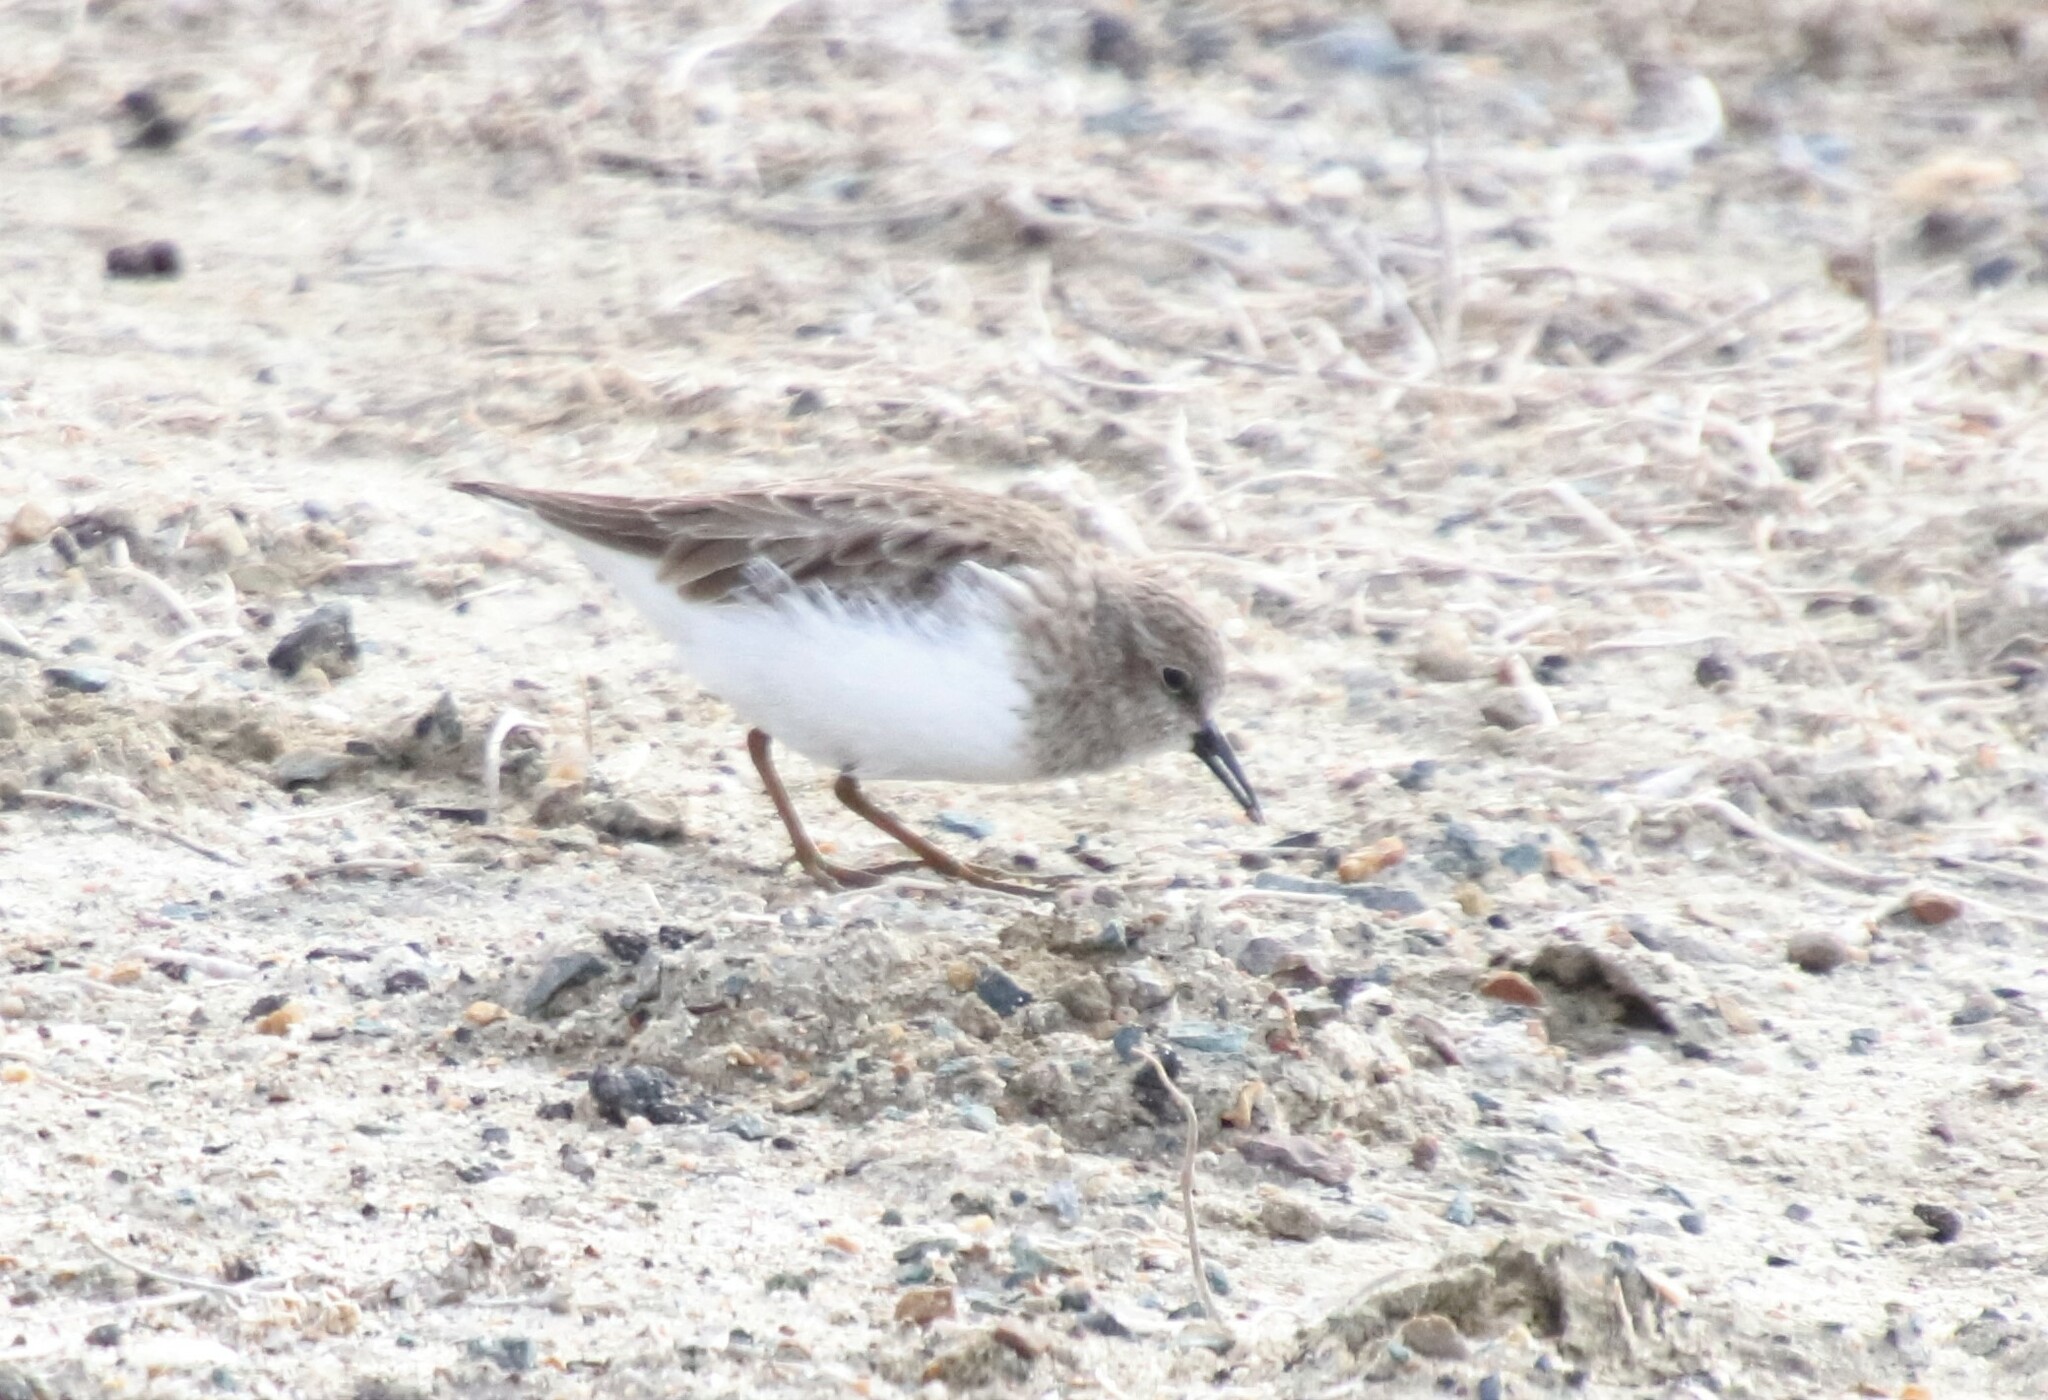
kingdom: Animalia
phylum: Chordata
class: Aves
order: Charadriiformes
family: Scolopacidae
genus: Calidris
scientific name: Calidris minutilla
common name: Least sandpiper
